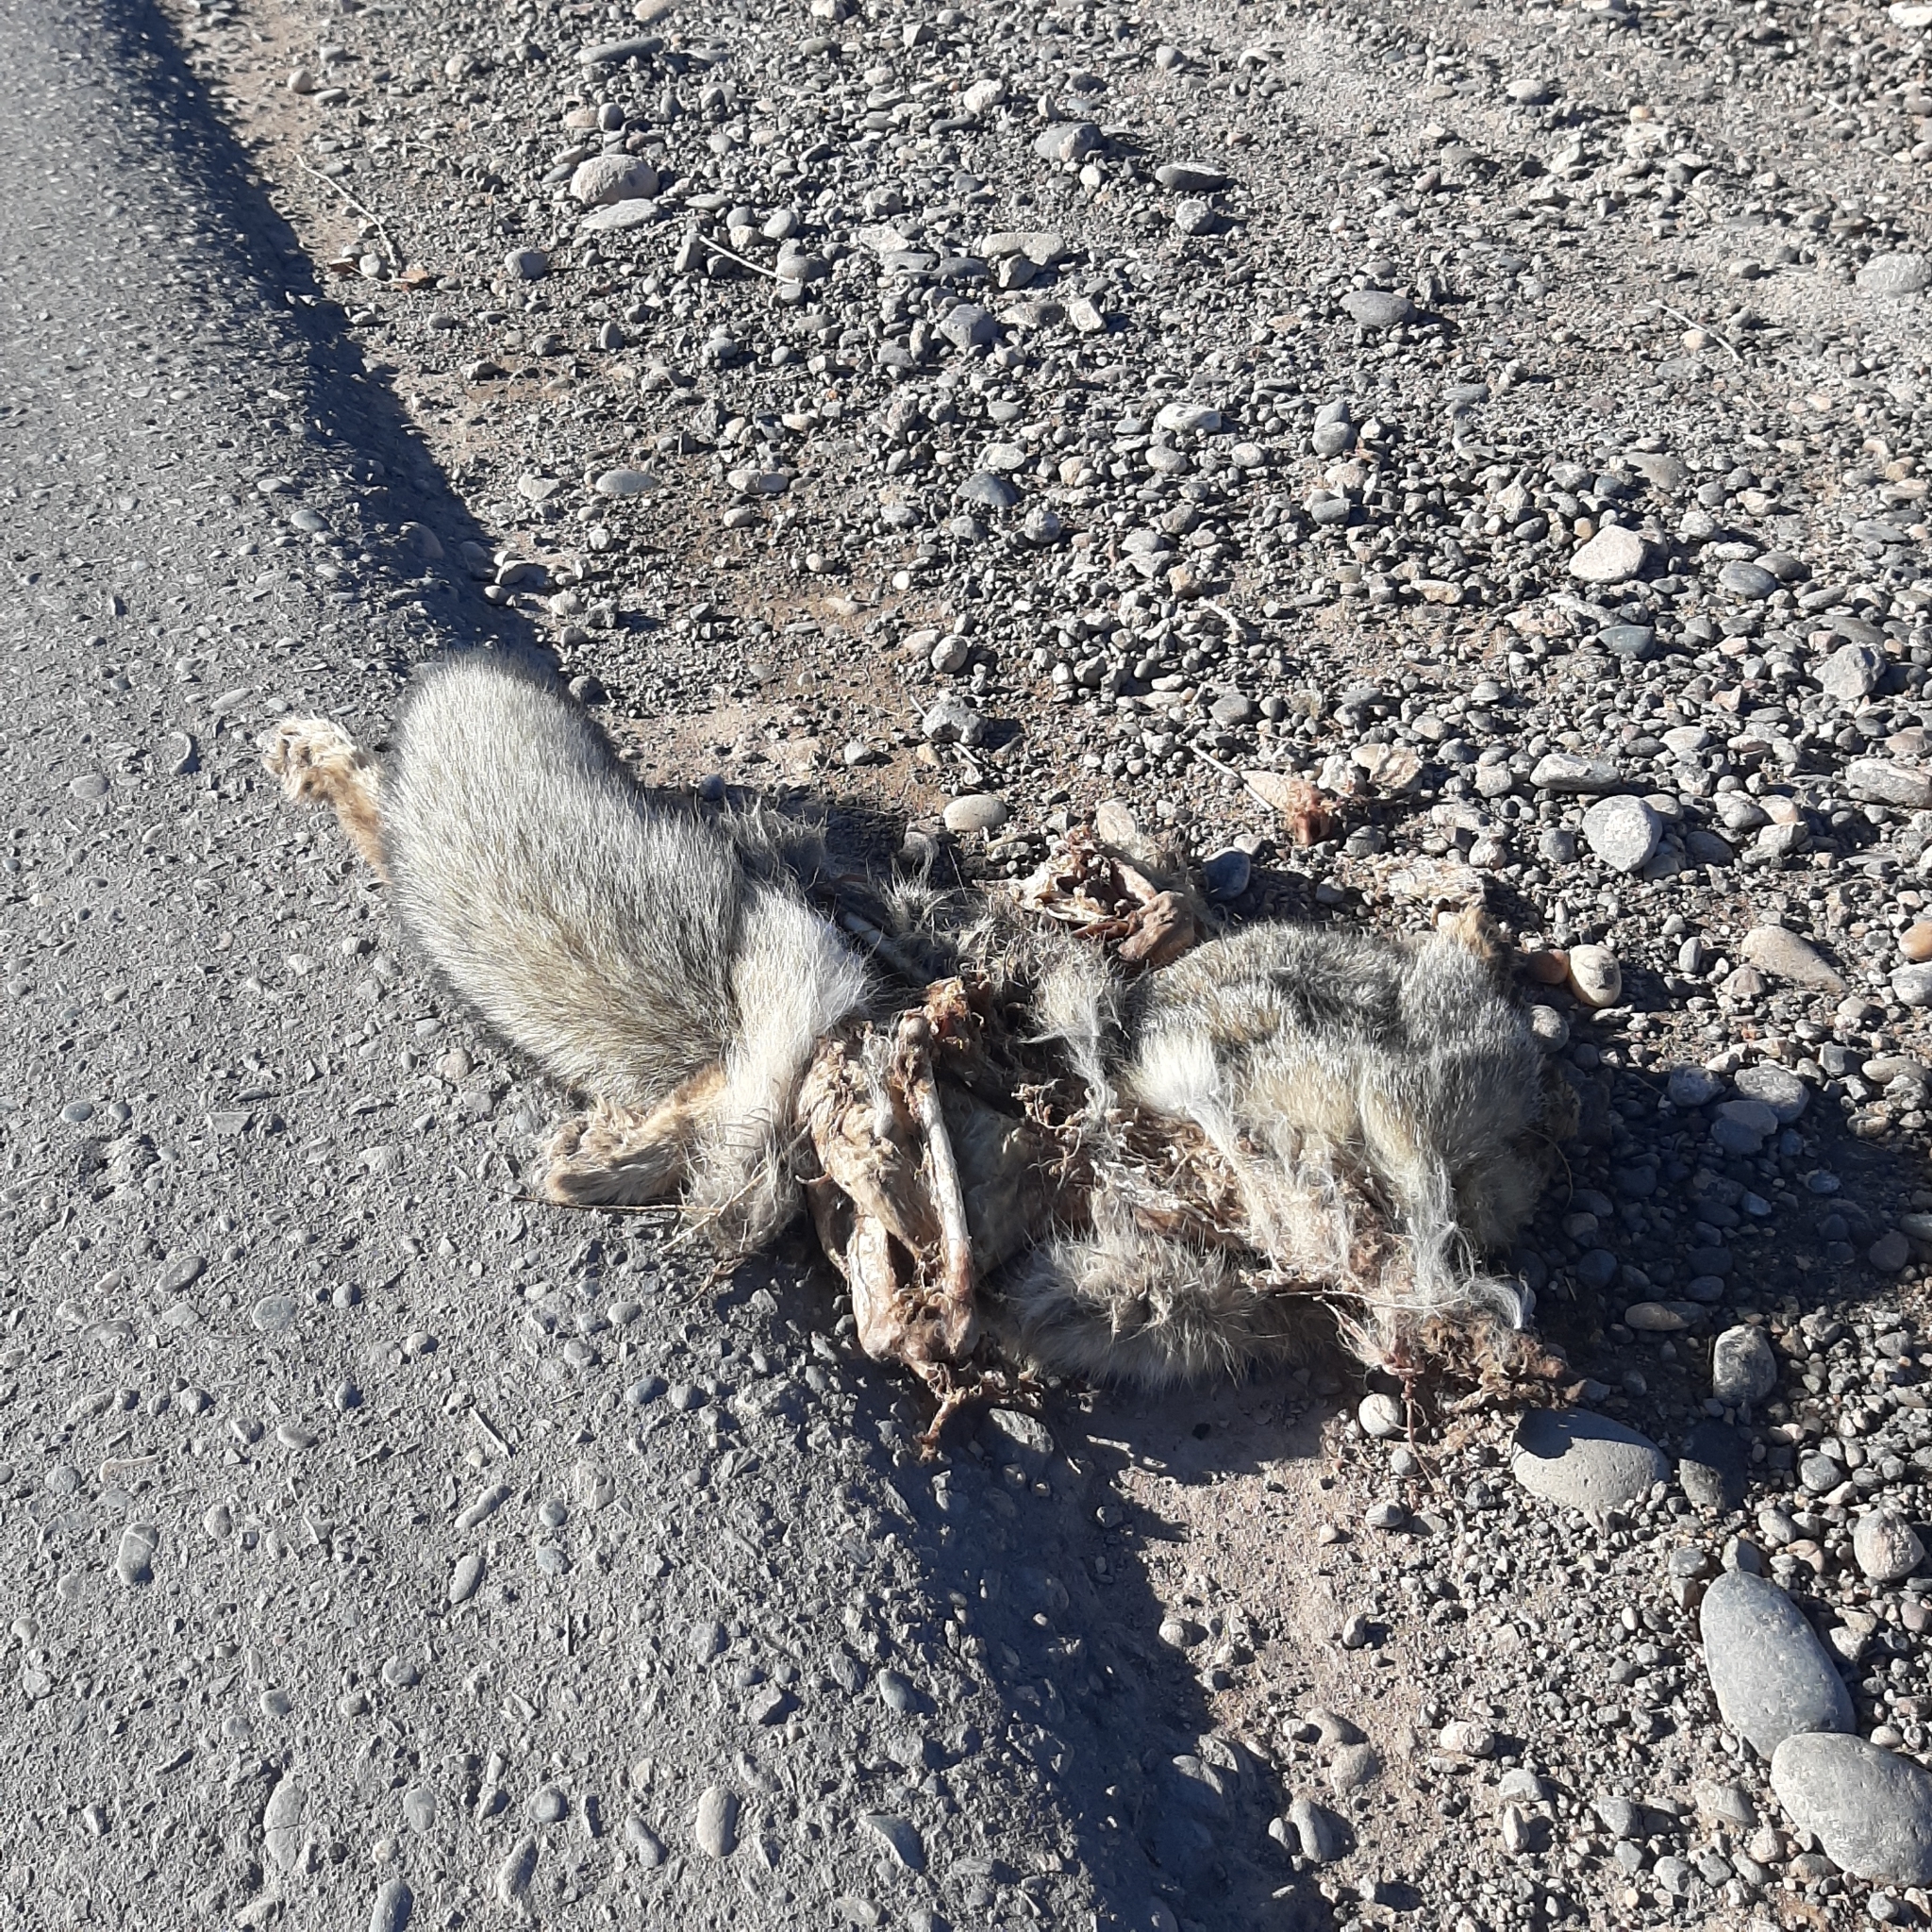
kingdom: Animalia
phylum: Chordata
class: Mammalia
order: Carnivora
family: Canidae
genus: Lycalopex
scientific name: Lycalopex gymnocercus
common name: Pampas fox
